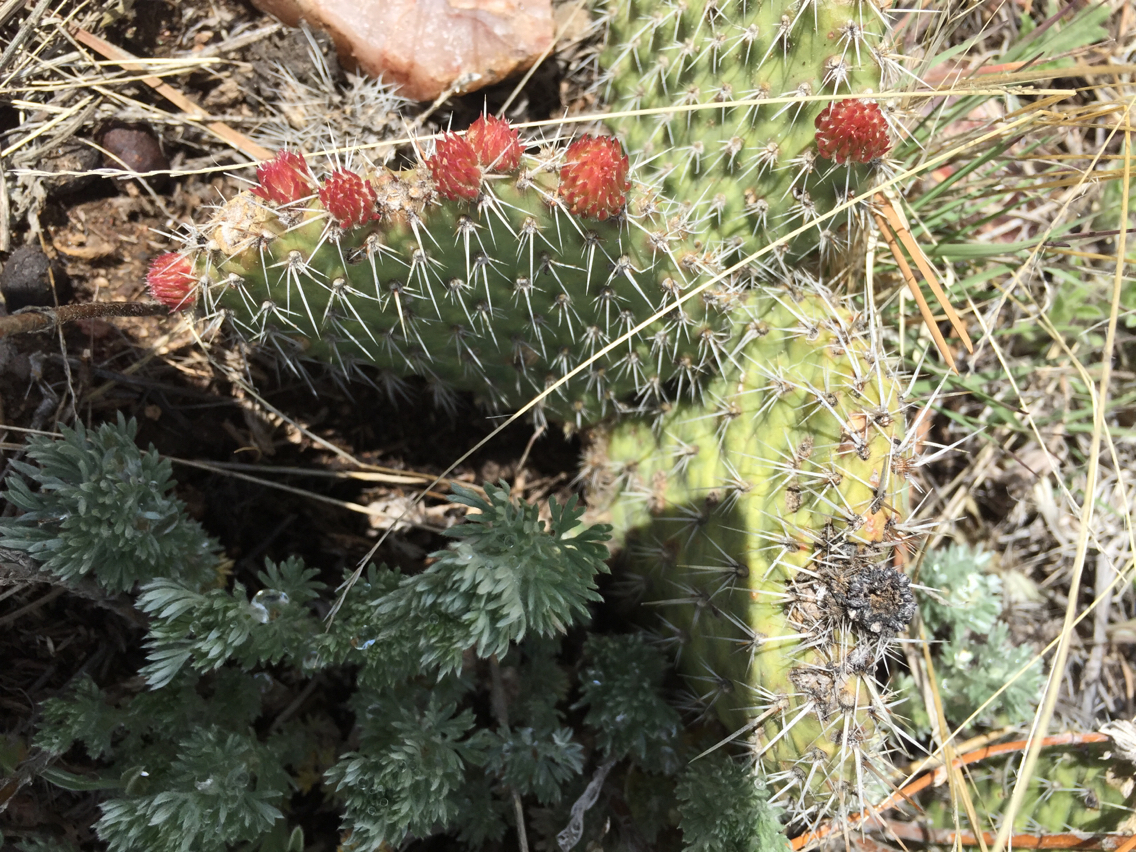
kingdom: Plantae
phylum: Tracheophyta
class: Magnoliopsida
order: Caryophyllales
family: Cactaceae
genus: Opuntia
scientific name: Opuntia polyacantha
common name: Plains prickly-pear
